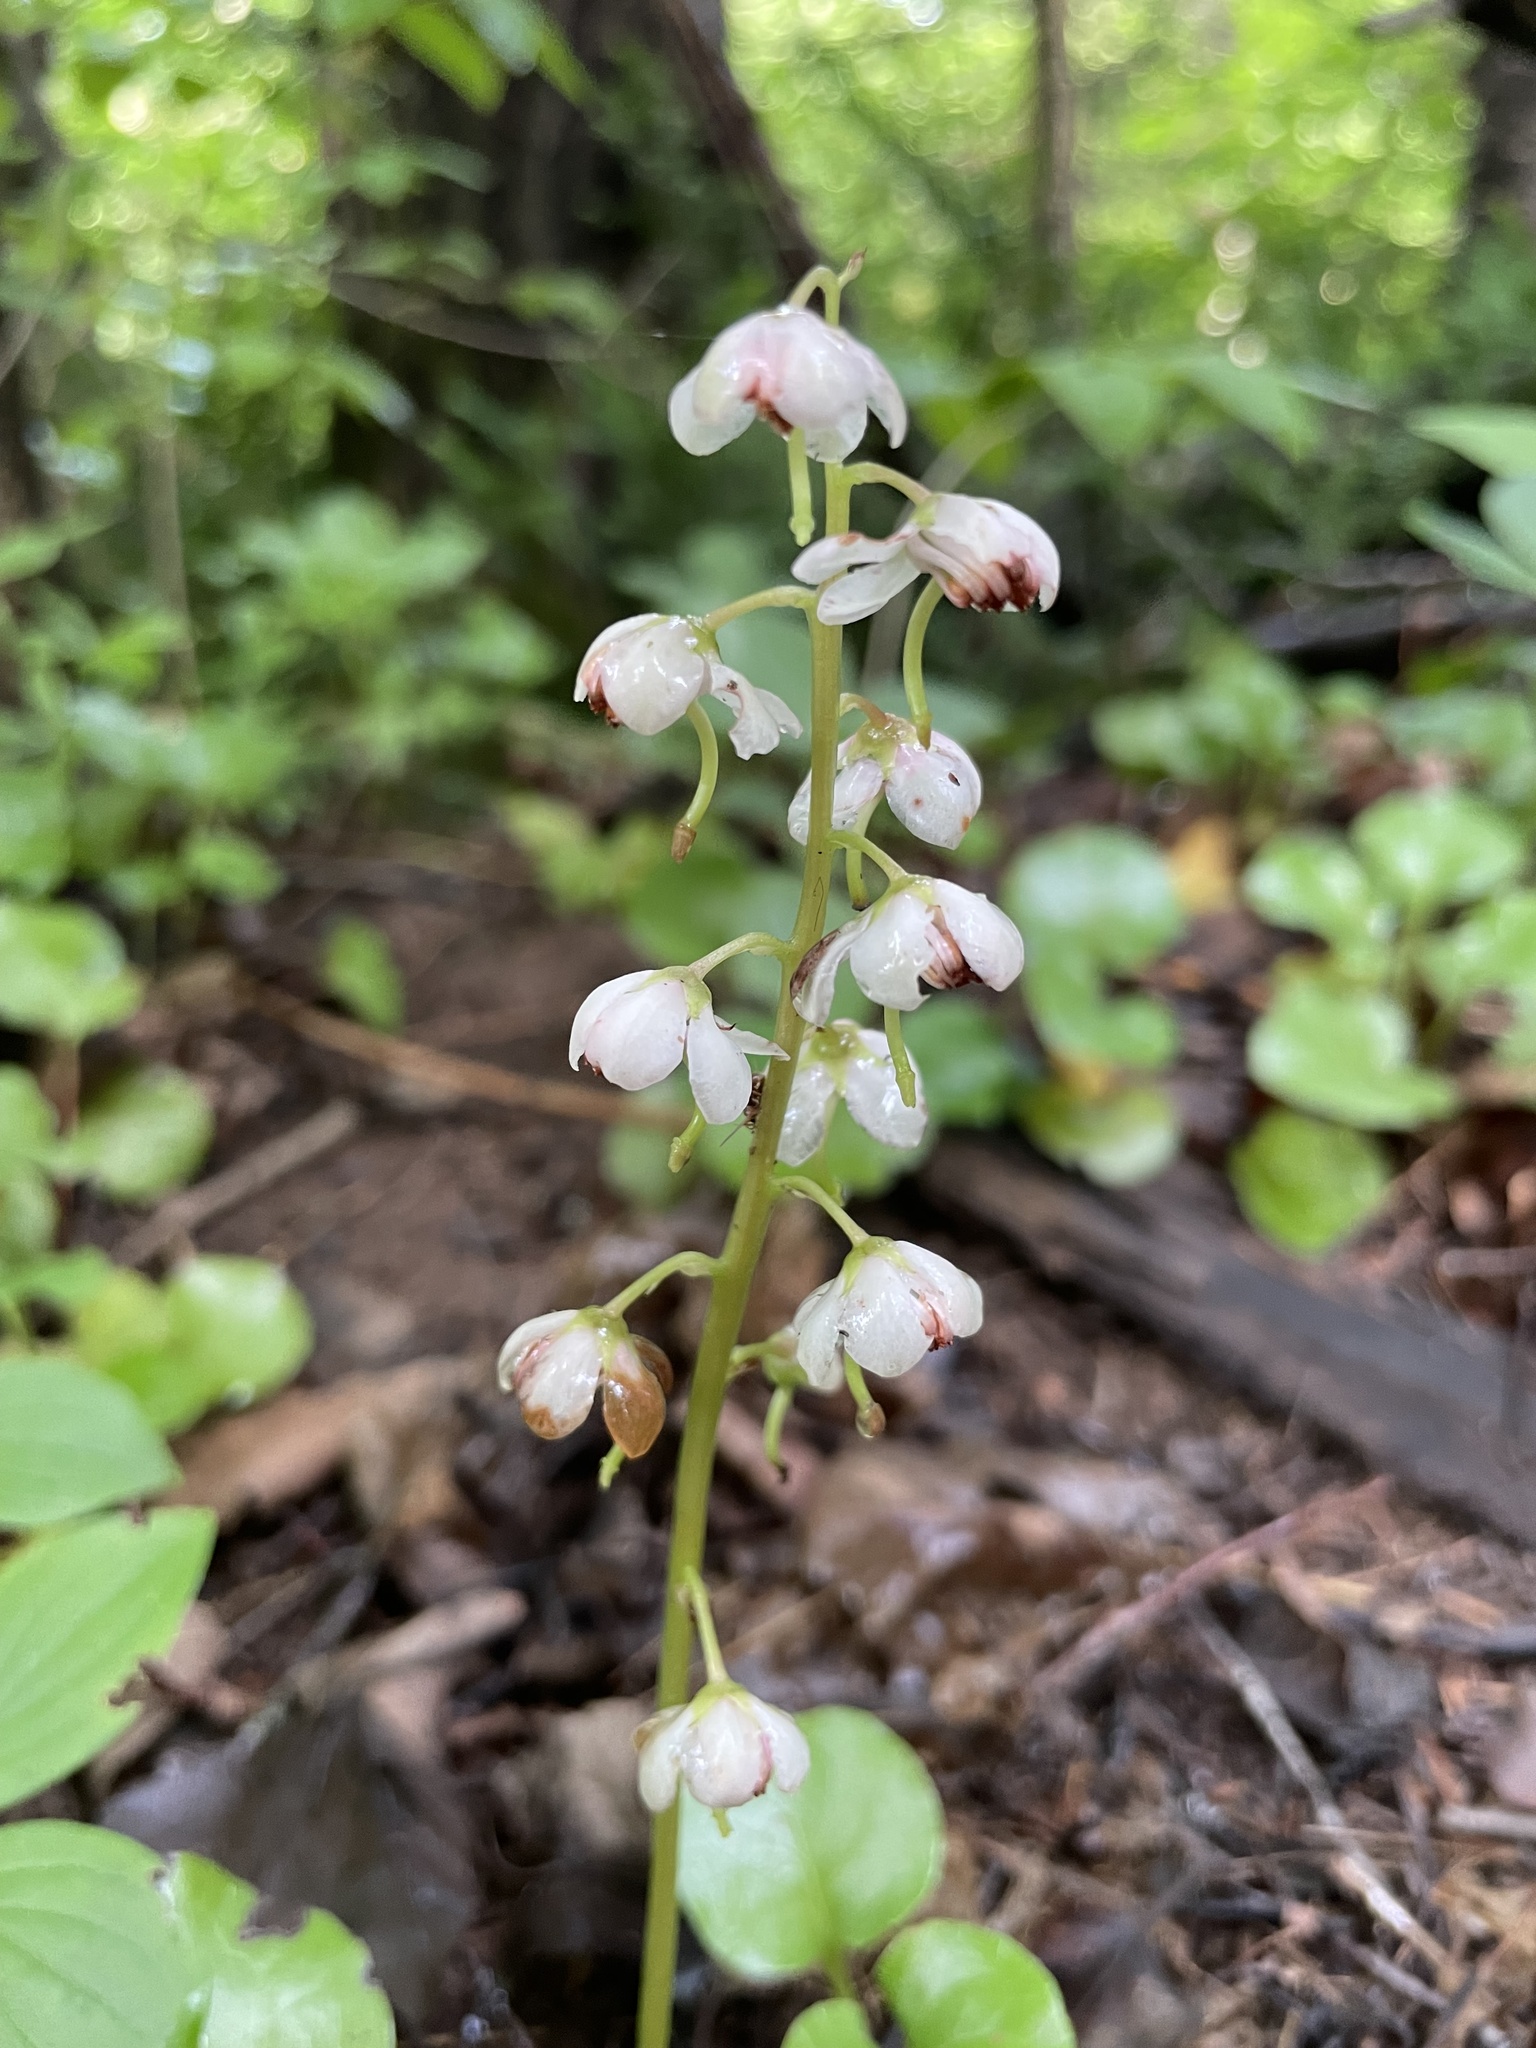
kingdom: Plantae
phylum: Tracheophyta
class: Magnoliopsida
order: Ericales
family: Ericaceae
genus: Pyrola
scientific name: Pyrola asarifolia
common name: Bog wintergreen
